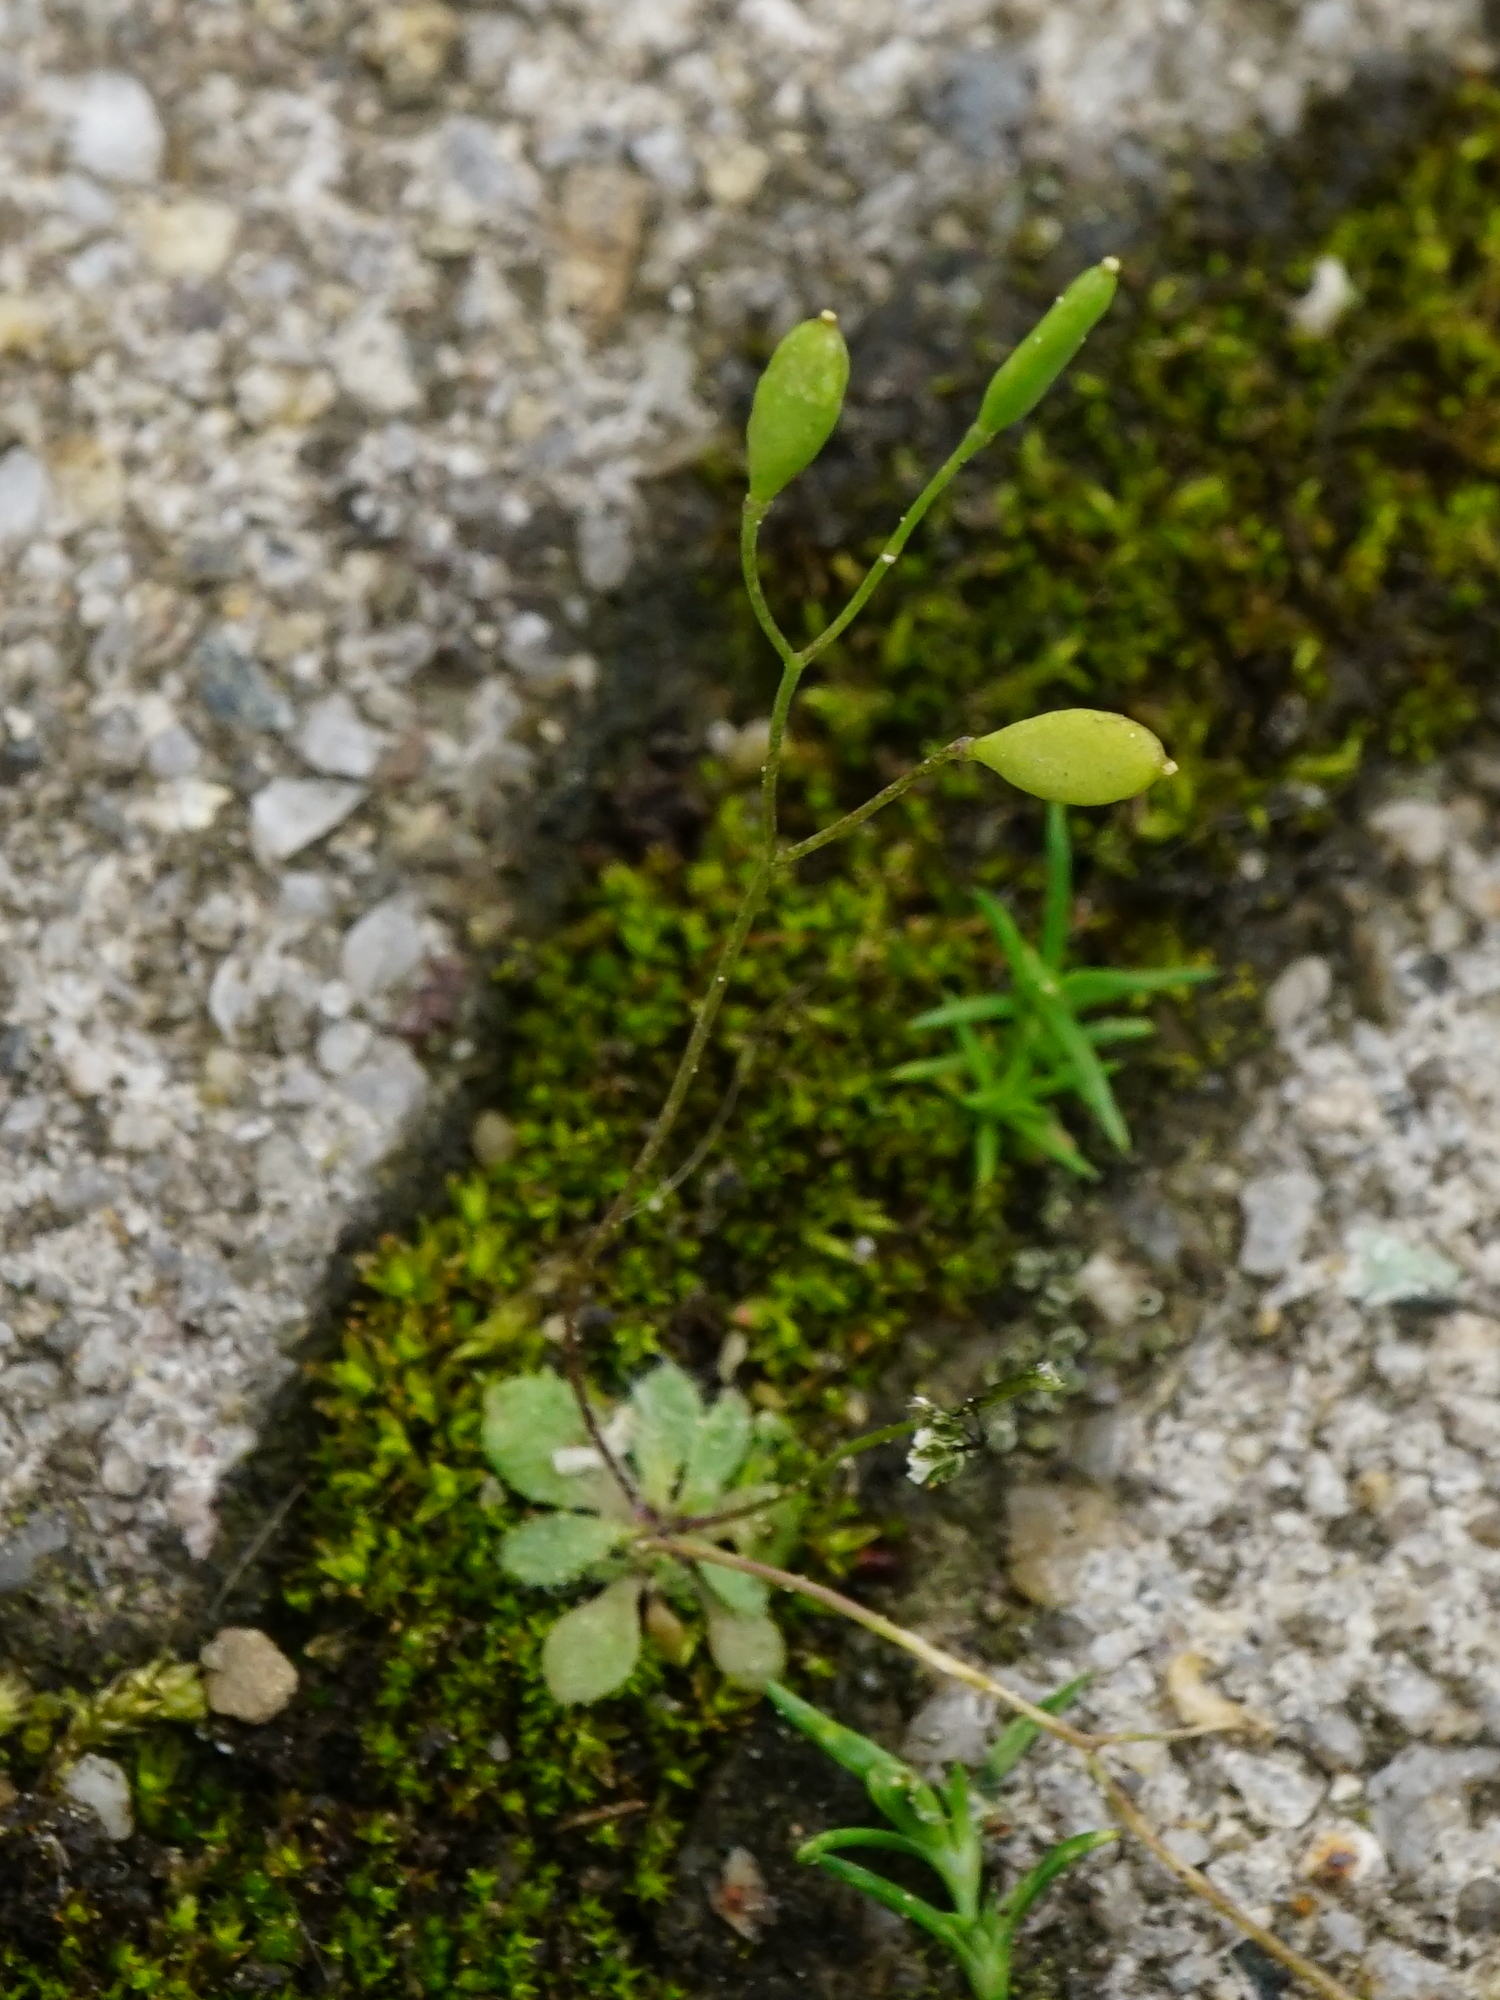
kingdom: Plantae
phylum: Tracheophyta
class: Magnoliopsida
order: Brassicales
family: Brassicaceae
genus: Draba
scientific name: Draba verna
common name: Spring draba
